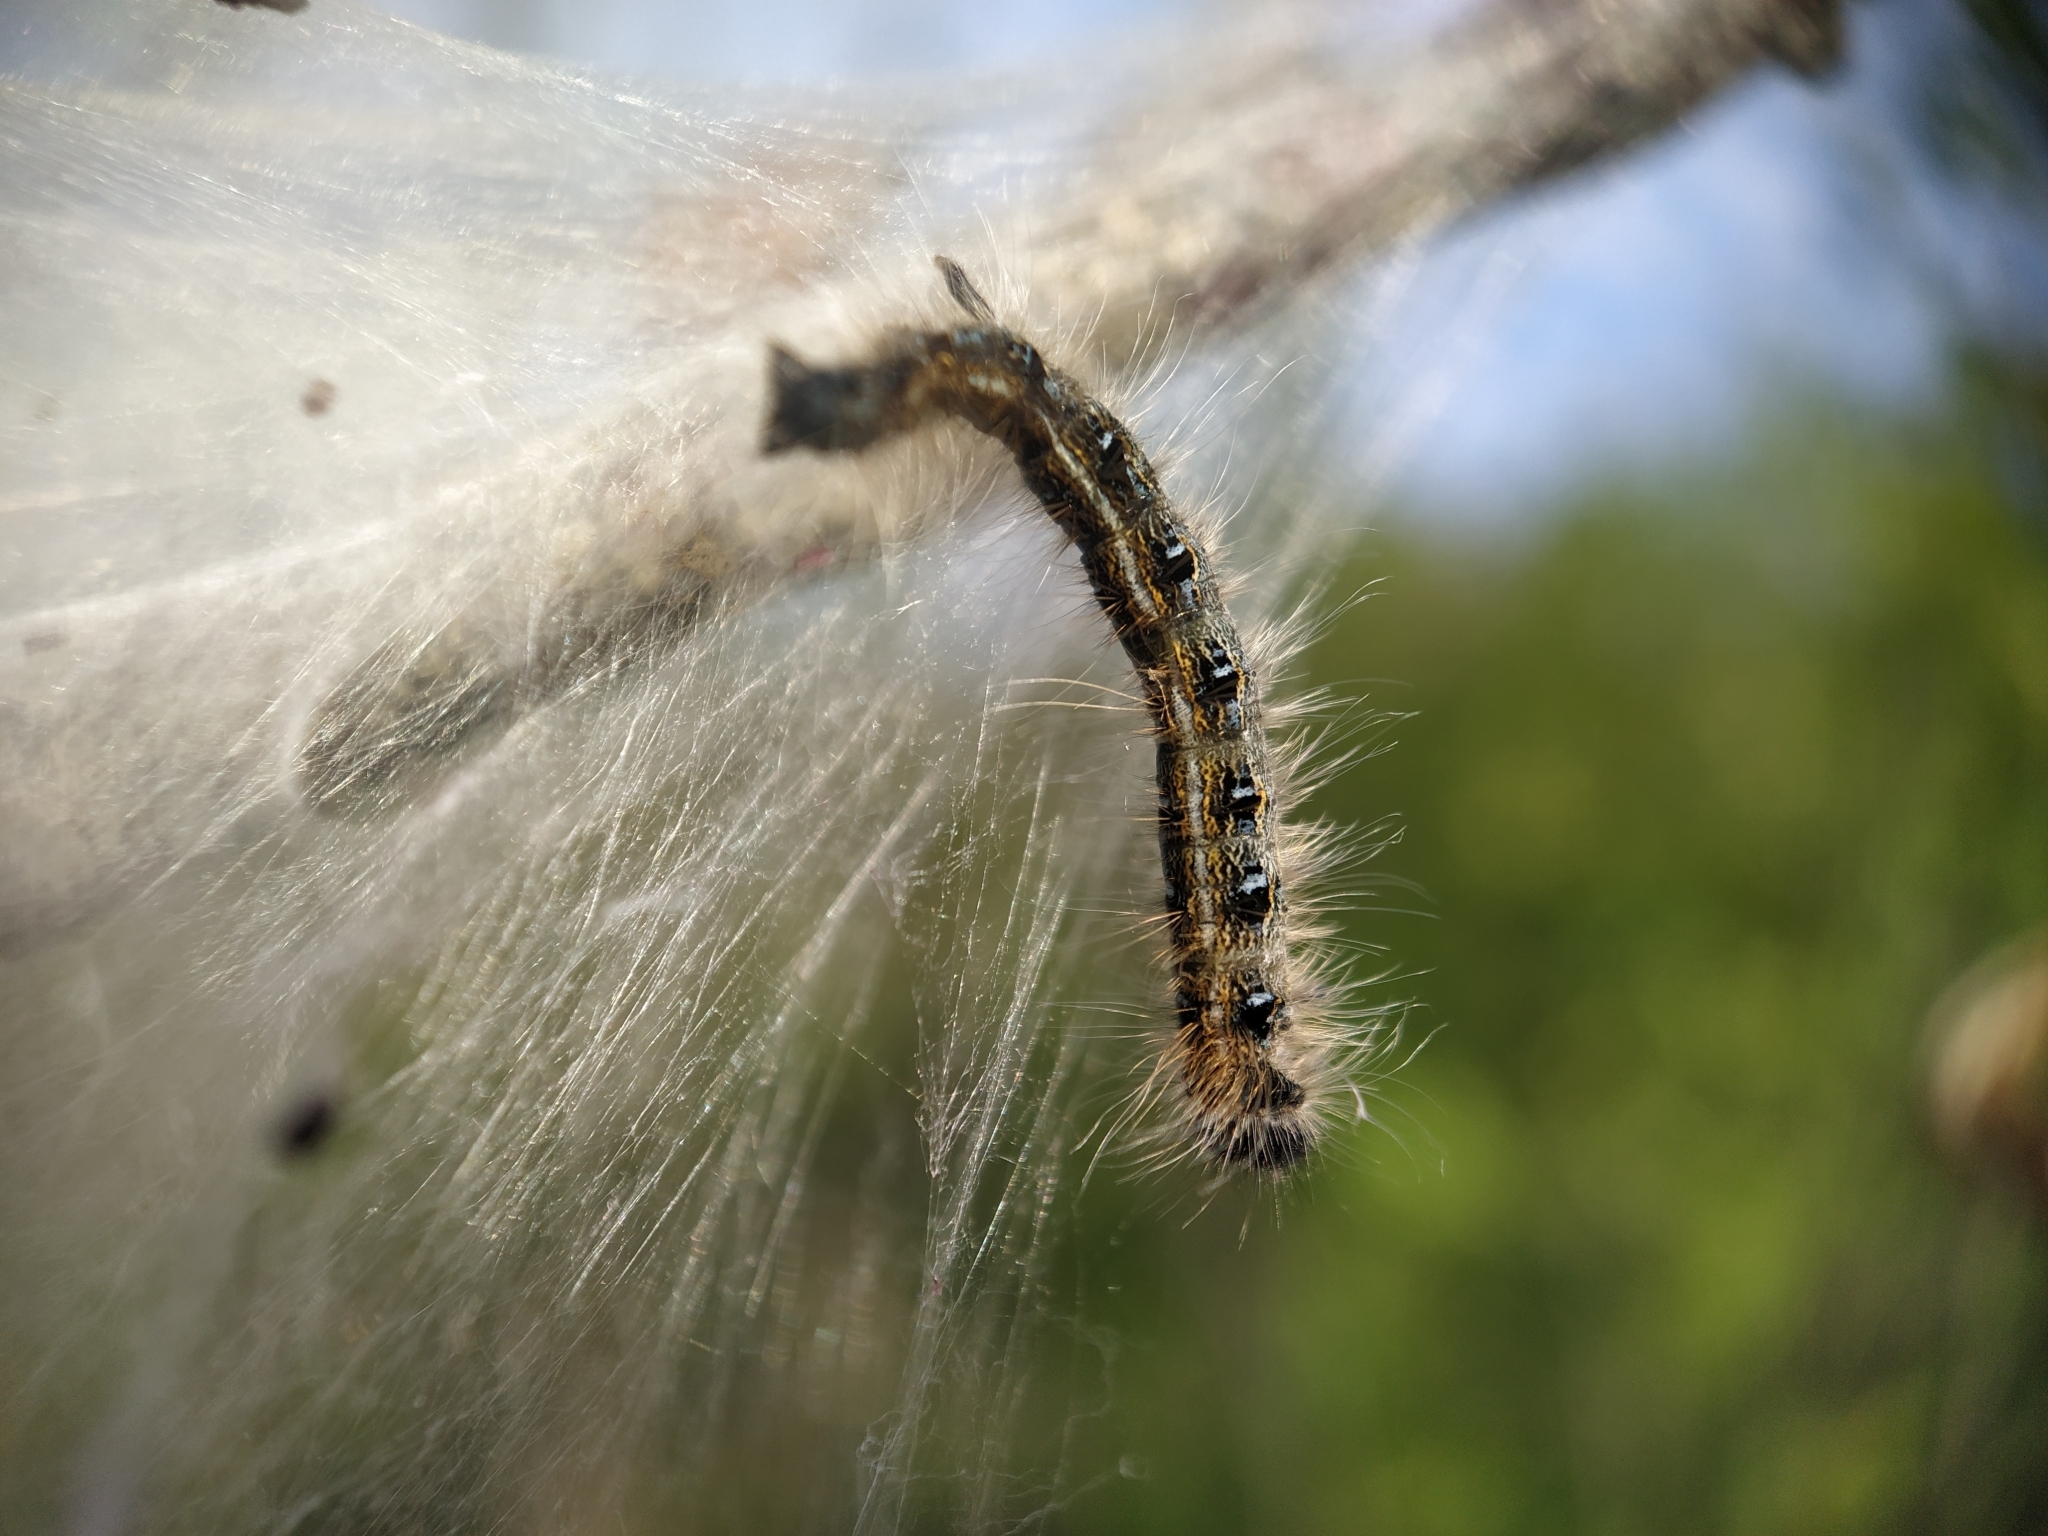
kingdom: Animalia
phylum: Arthropoda
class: Insecta
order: Lepidoptera
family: Lasiocampidae
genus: Malacosoma
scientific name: Malacosoma americana
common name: Eastern tent caterpillar moth
